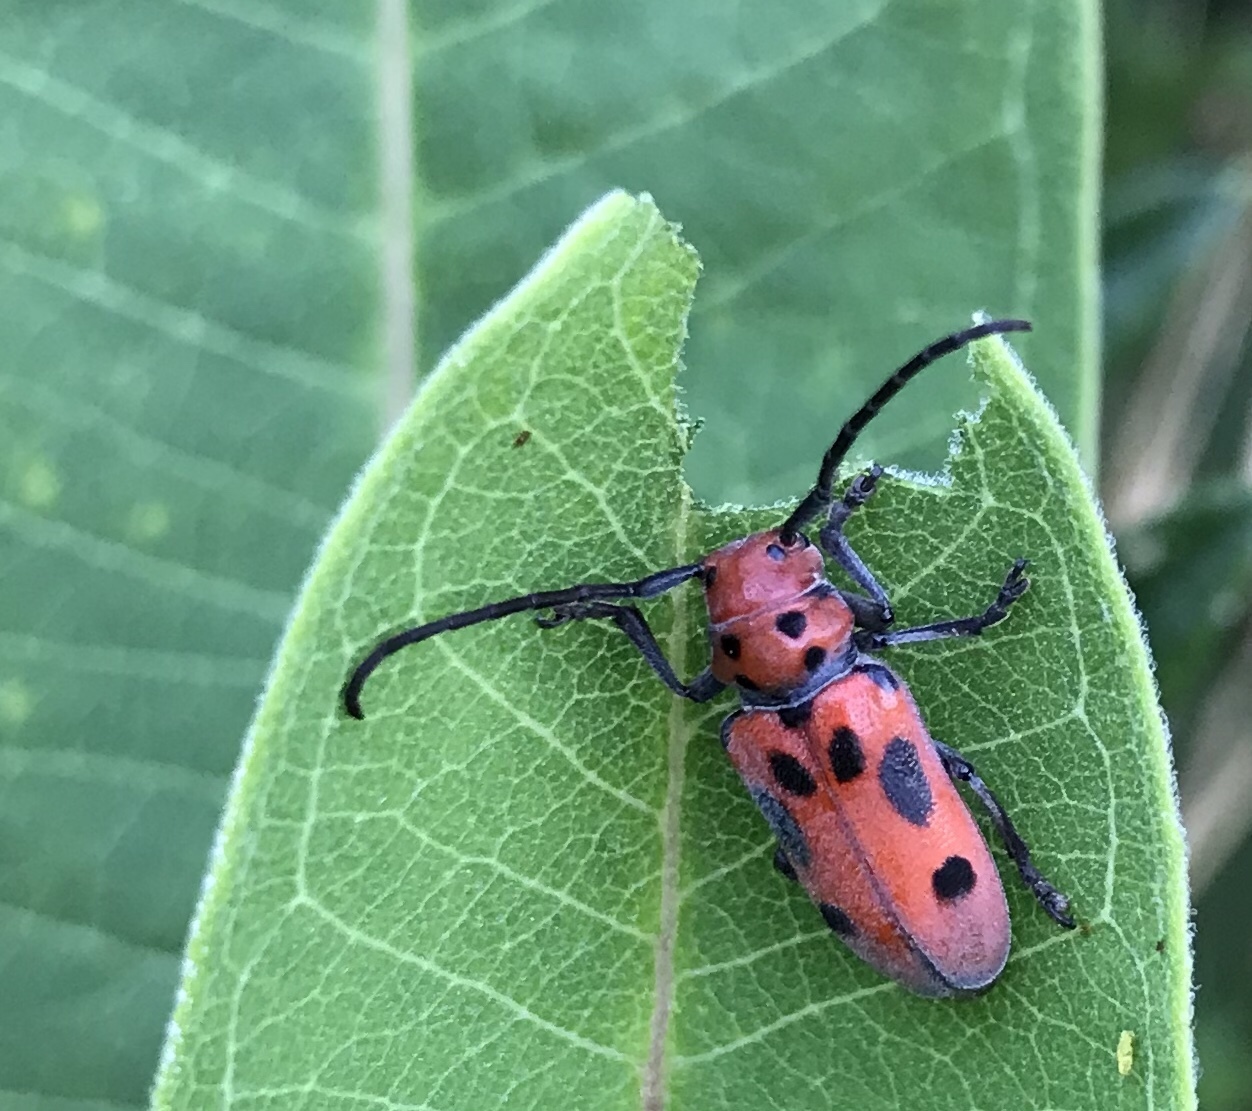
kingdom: Animalia
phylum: Arthropoda
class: Insecta
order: Coleoptera
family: Cerambycidae
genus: Tetraopes
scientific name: Tetraopes tetrophthalmus
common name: Red milkweed beetle
